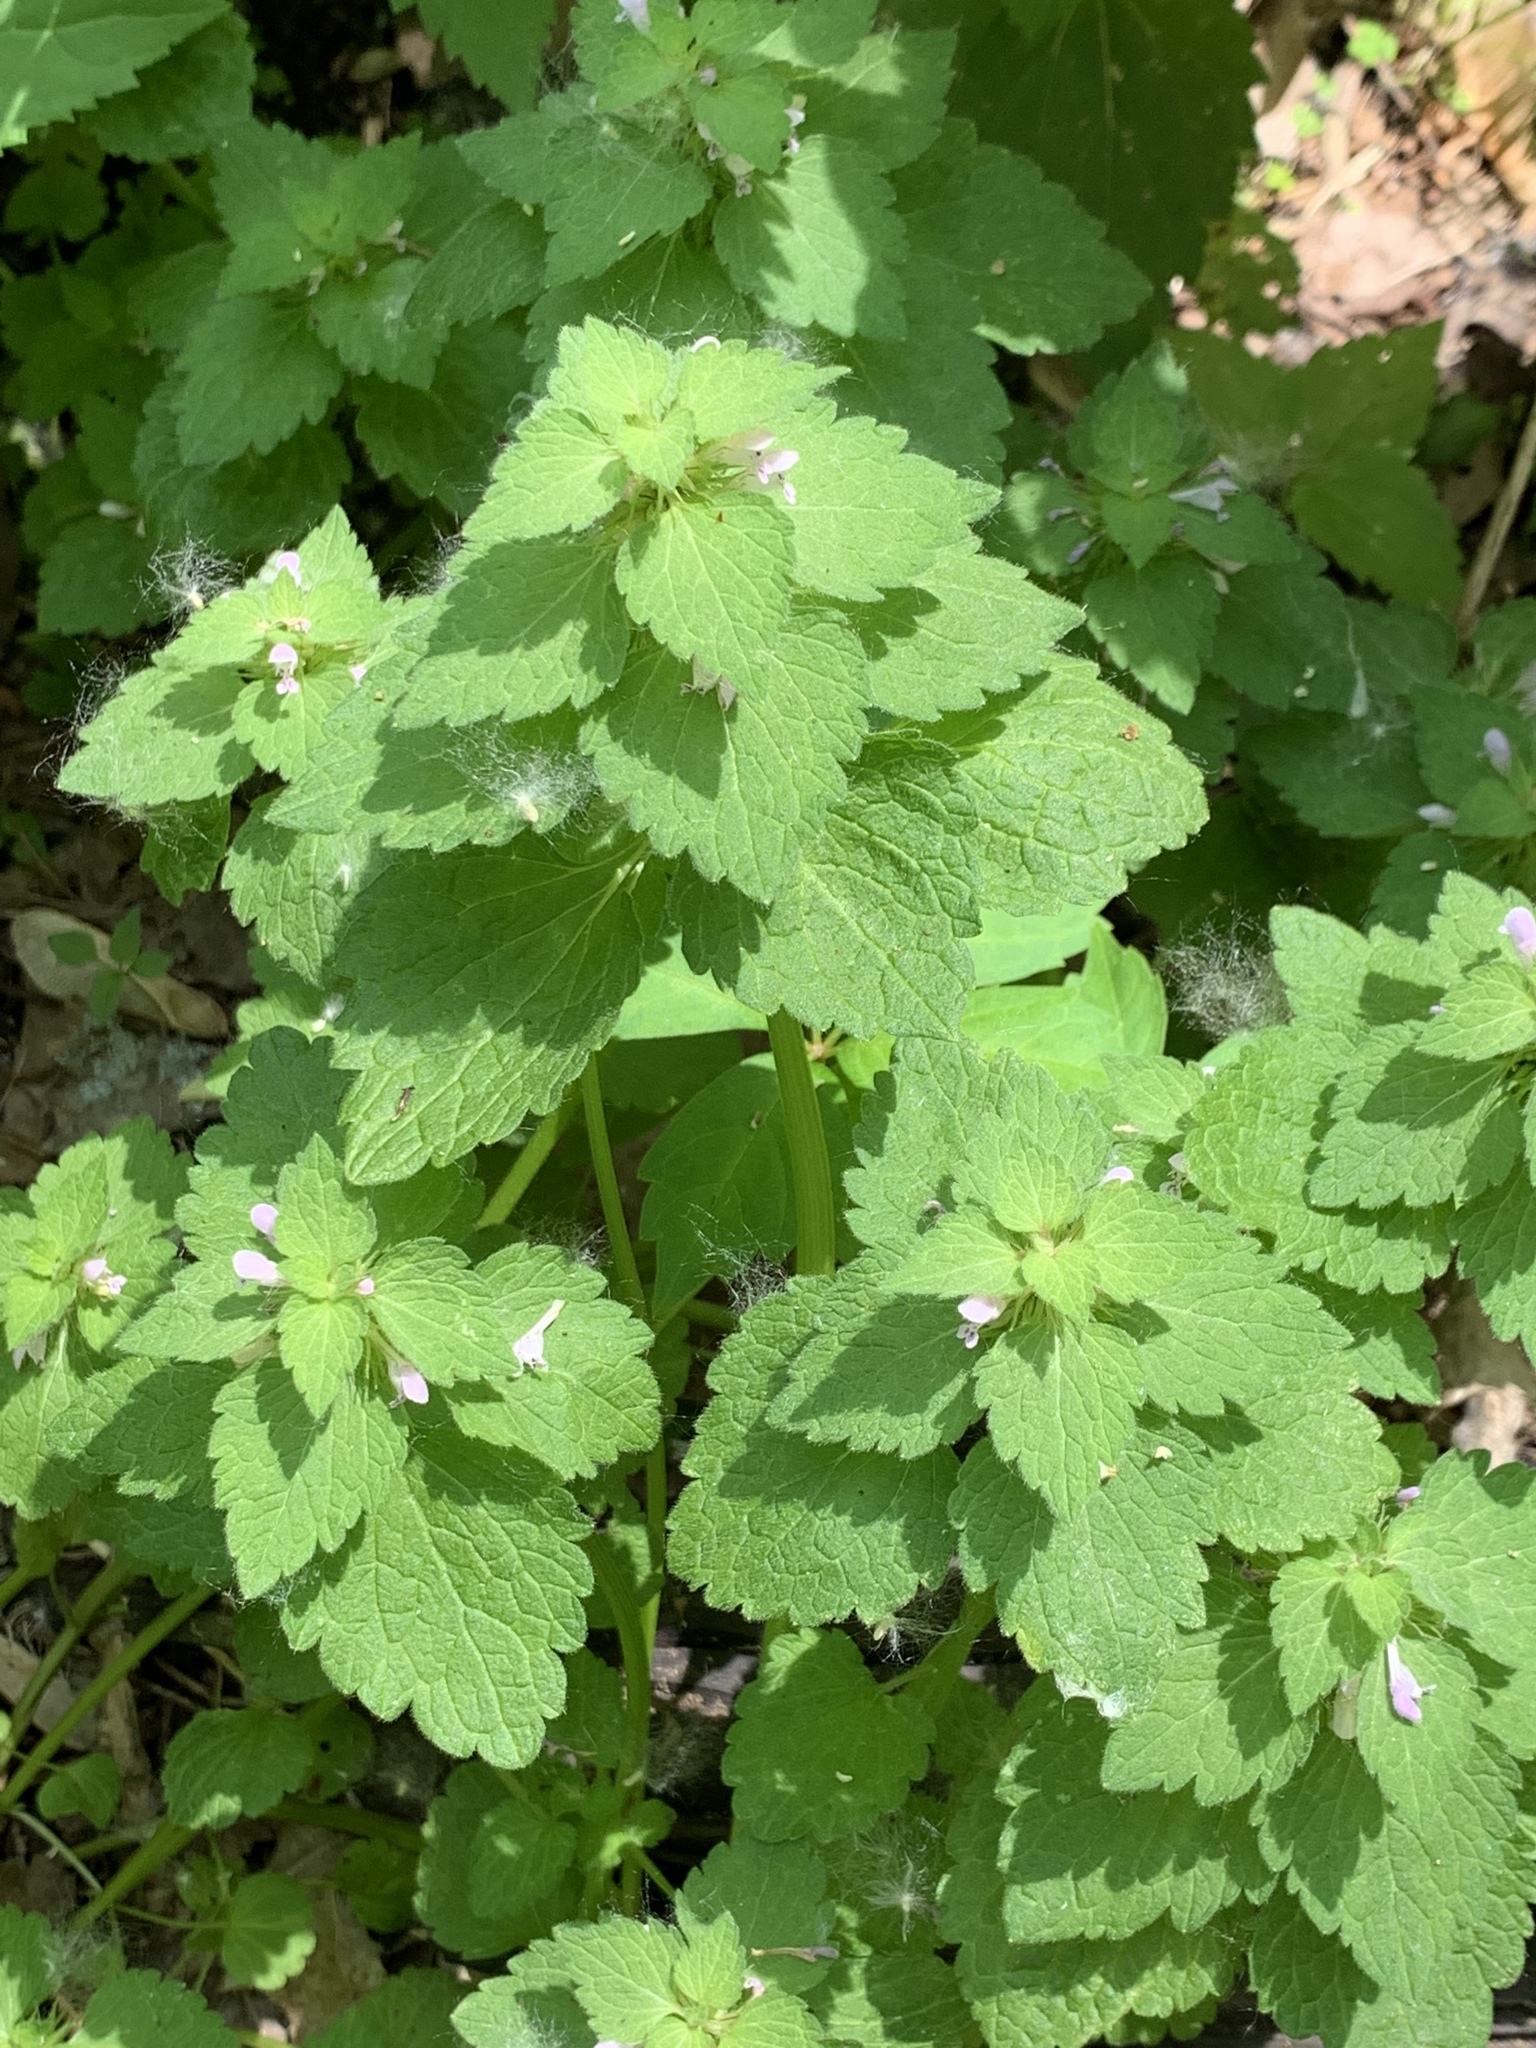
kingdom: Plantae
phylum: Tracheophyta
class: Magnoliopsida
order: Lamiales
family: Lamiaceae
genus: Lamium
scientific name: Lamium purpureum
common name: Red dead-nettle
